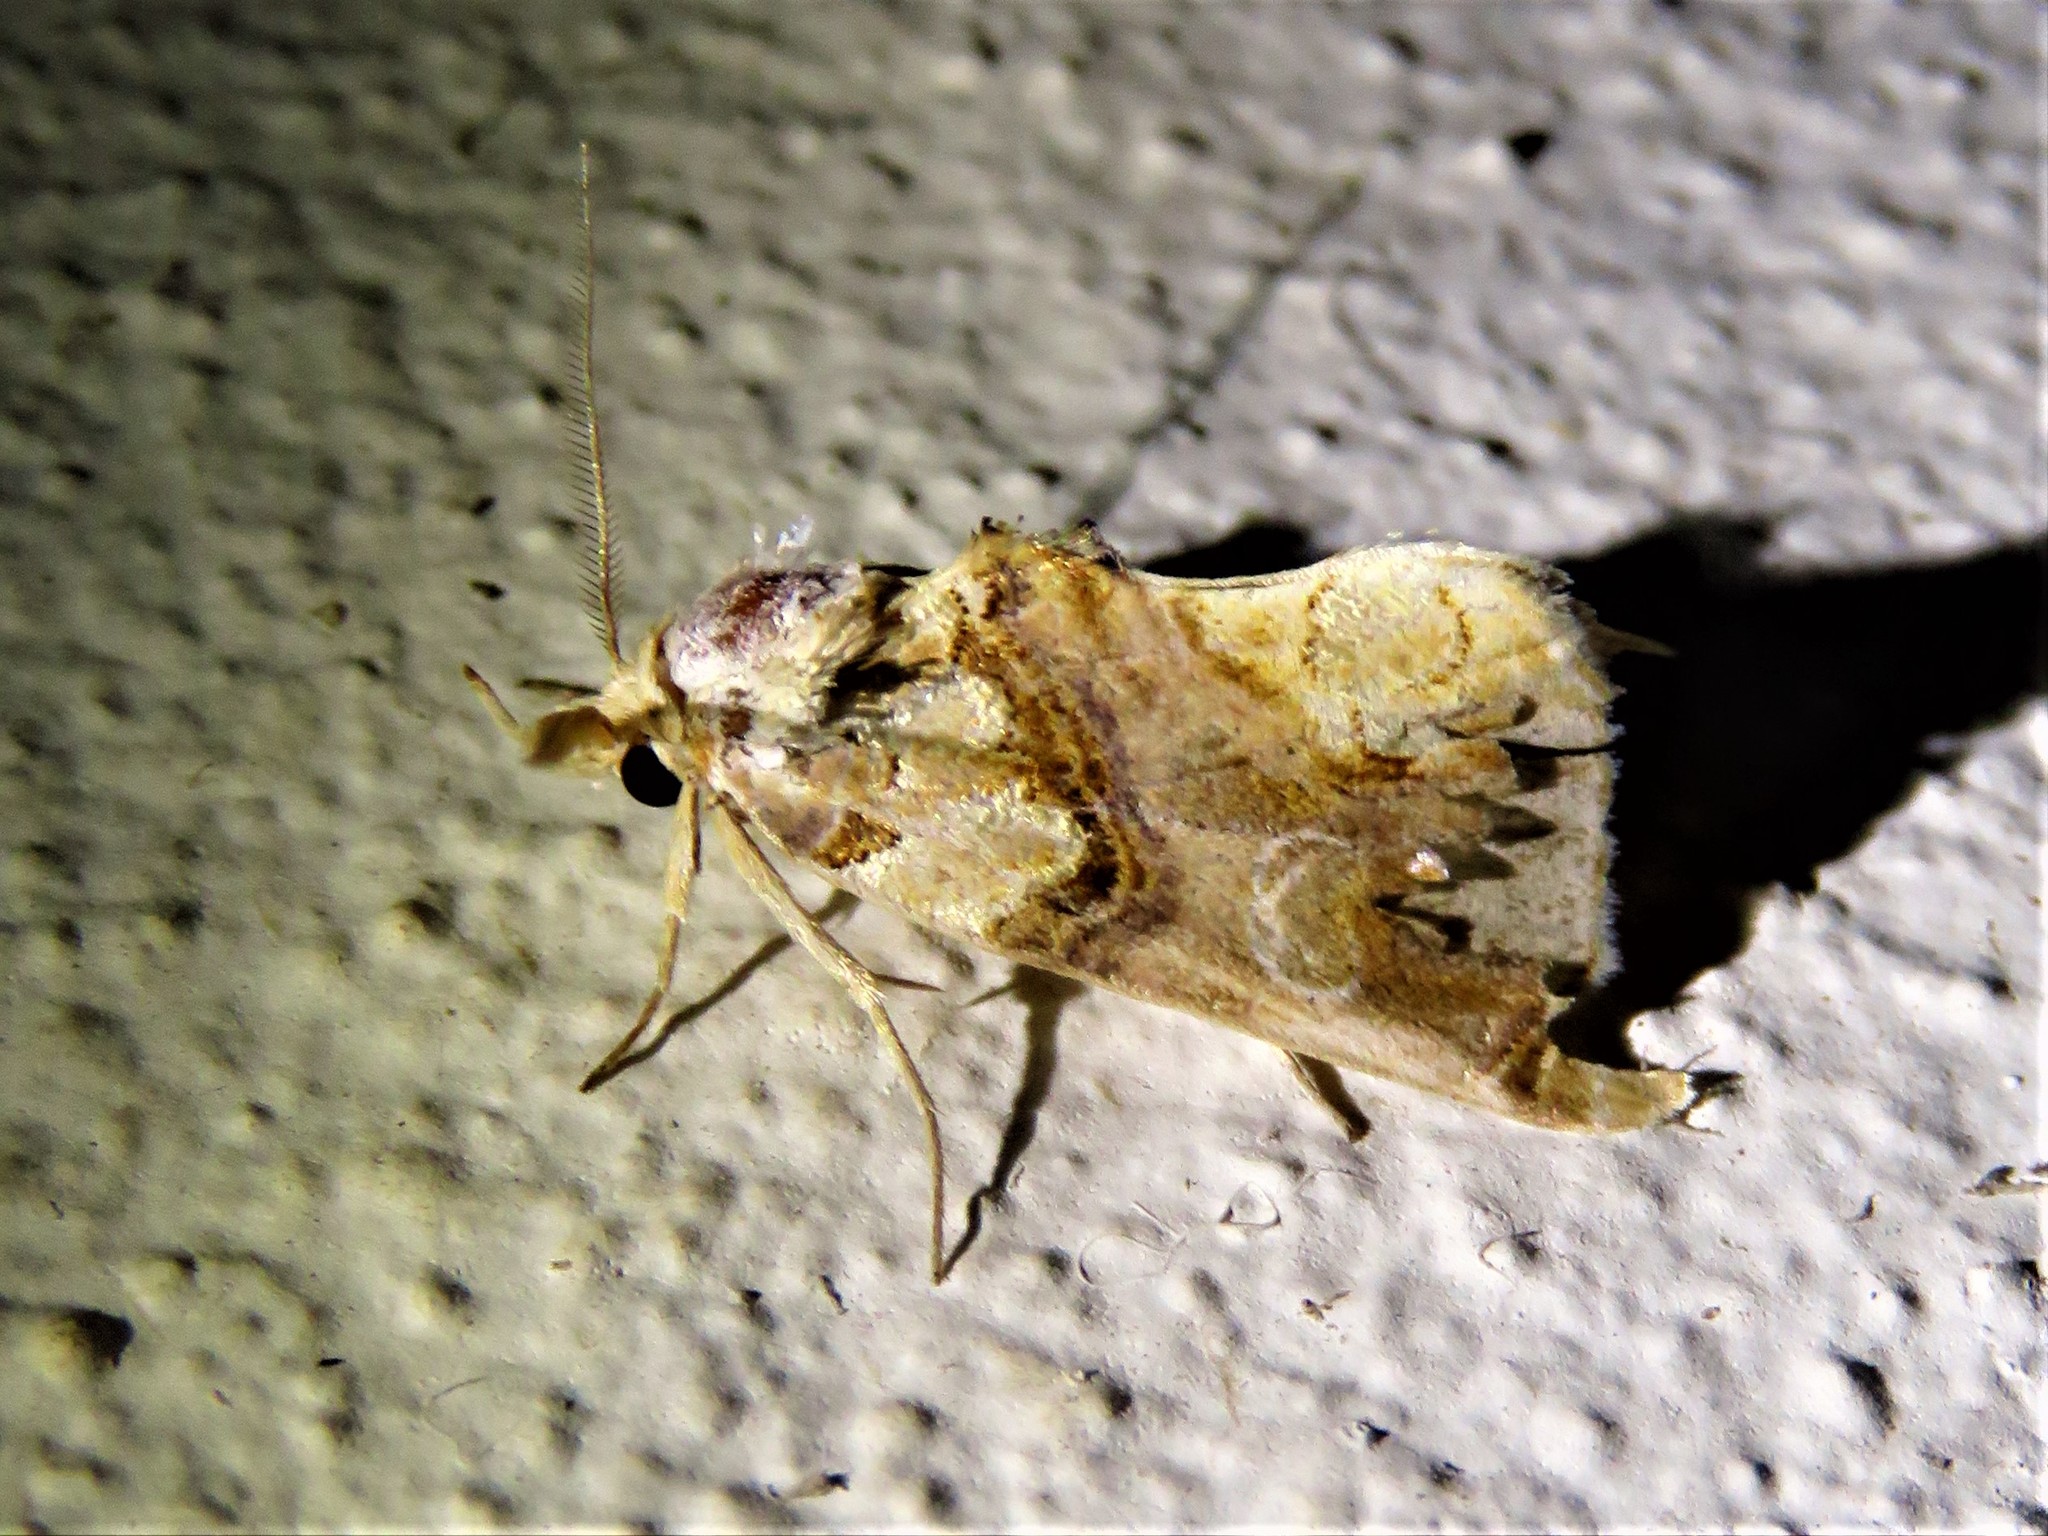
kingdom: Animalia
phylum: Arthropoda
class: Insecta
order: Lepidoptera
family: Erebidae
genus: Plusiodonta
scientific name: Plusiodonta compressipalpis
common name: Moonseed moth
